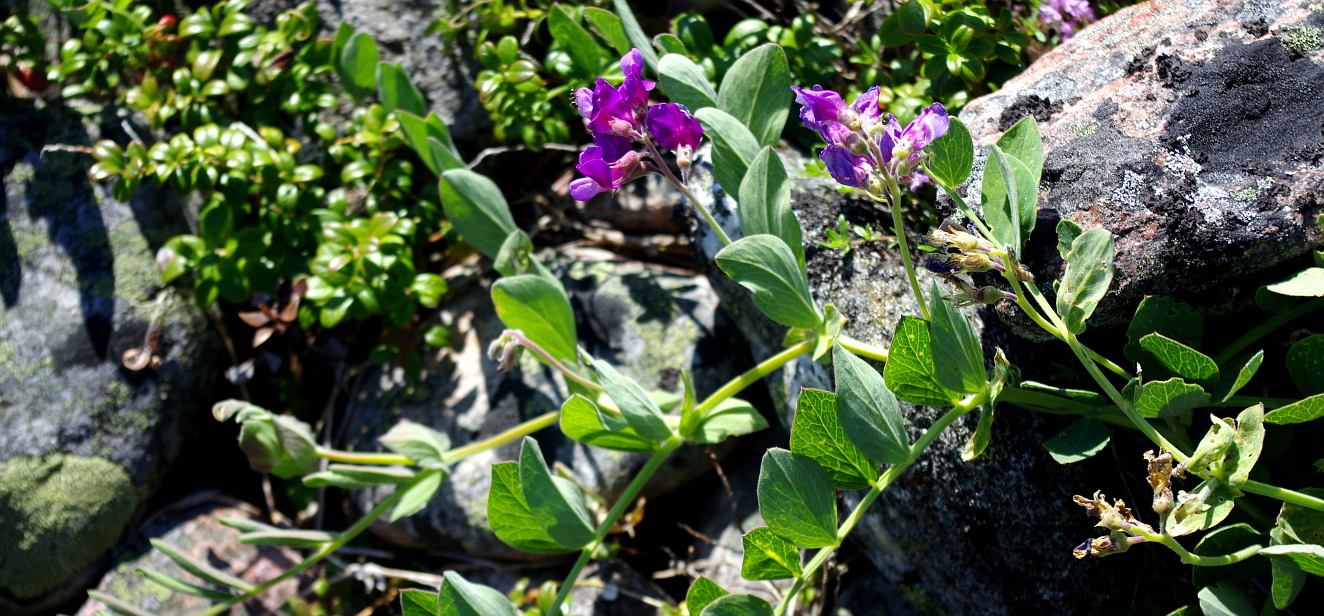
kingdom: Plantae
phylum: Tracheophyta
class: Magnoliopsida
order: Fabales
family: Fabaceae
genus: Lathyrus
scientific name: Lathyrus japonicus
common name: Sea pea
